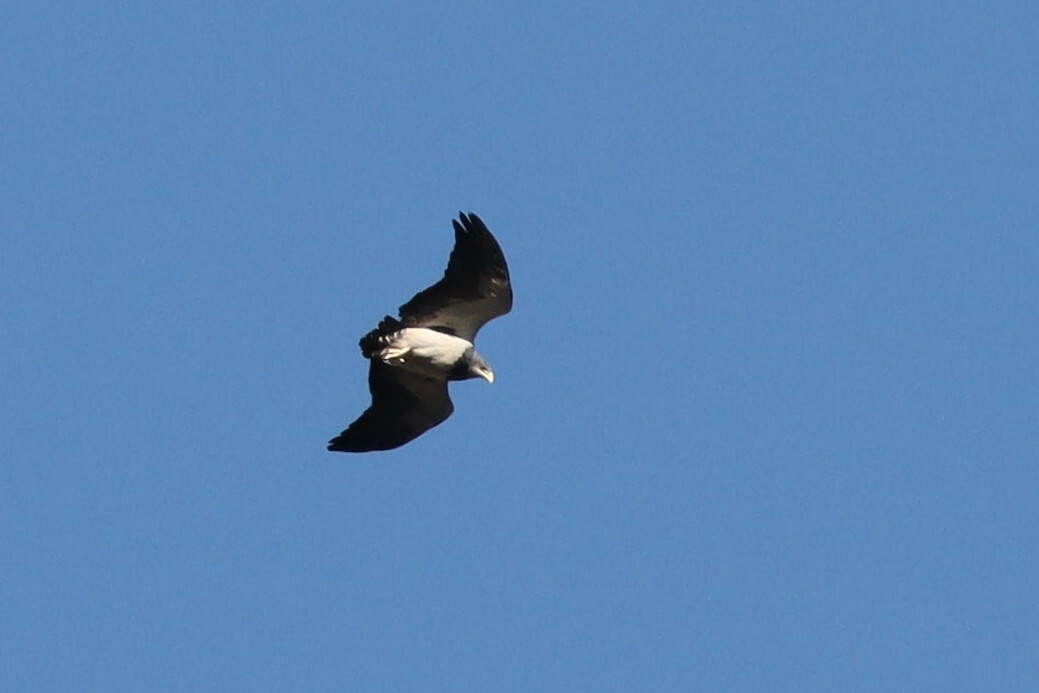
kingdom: Animalia
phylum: Chordata
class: Aves
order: Accipitriformes
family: Accipitridae
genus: Geranoaetus
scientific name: Geranoaetus melanoleucus
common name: Black-chested buzzard-eagle
